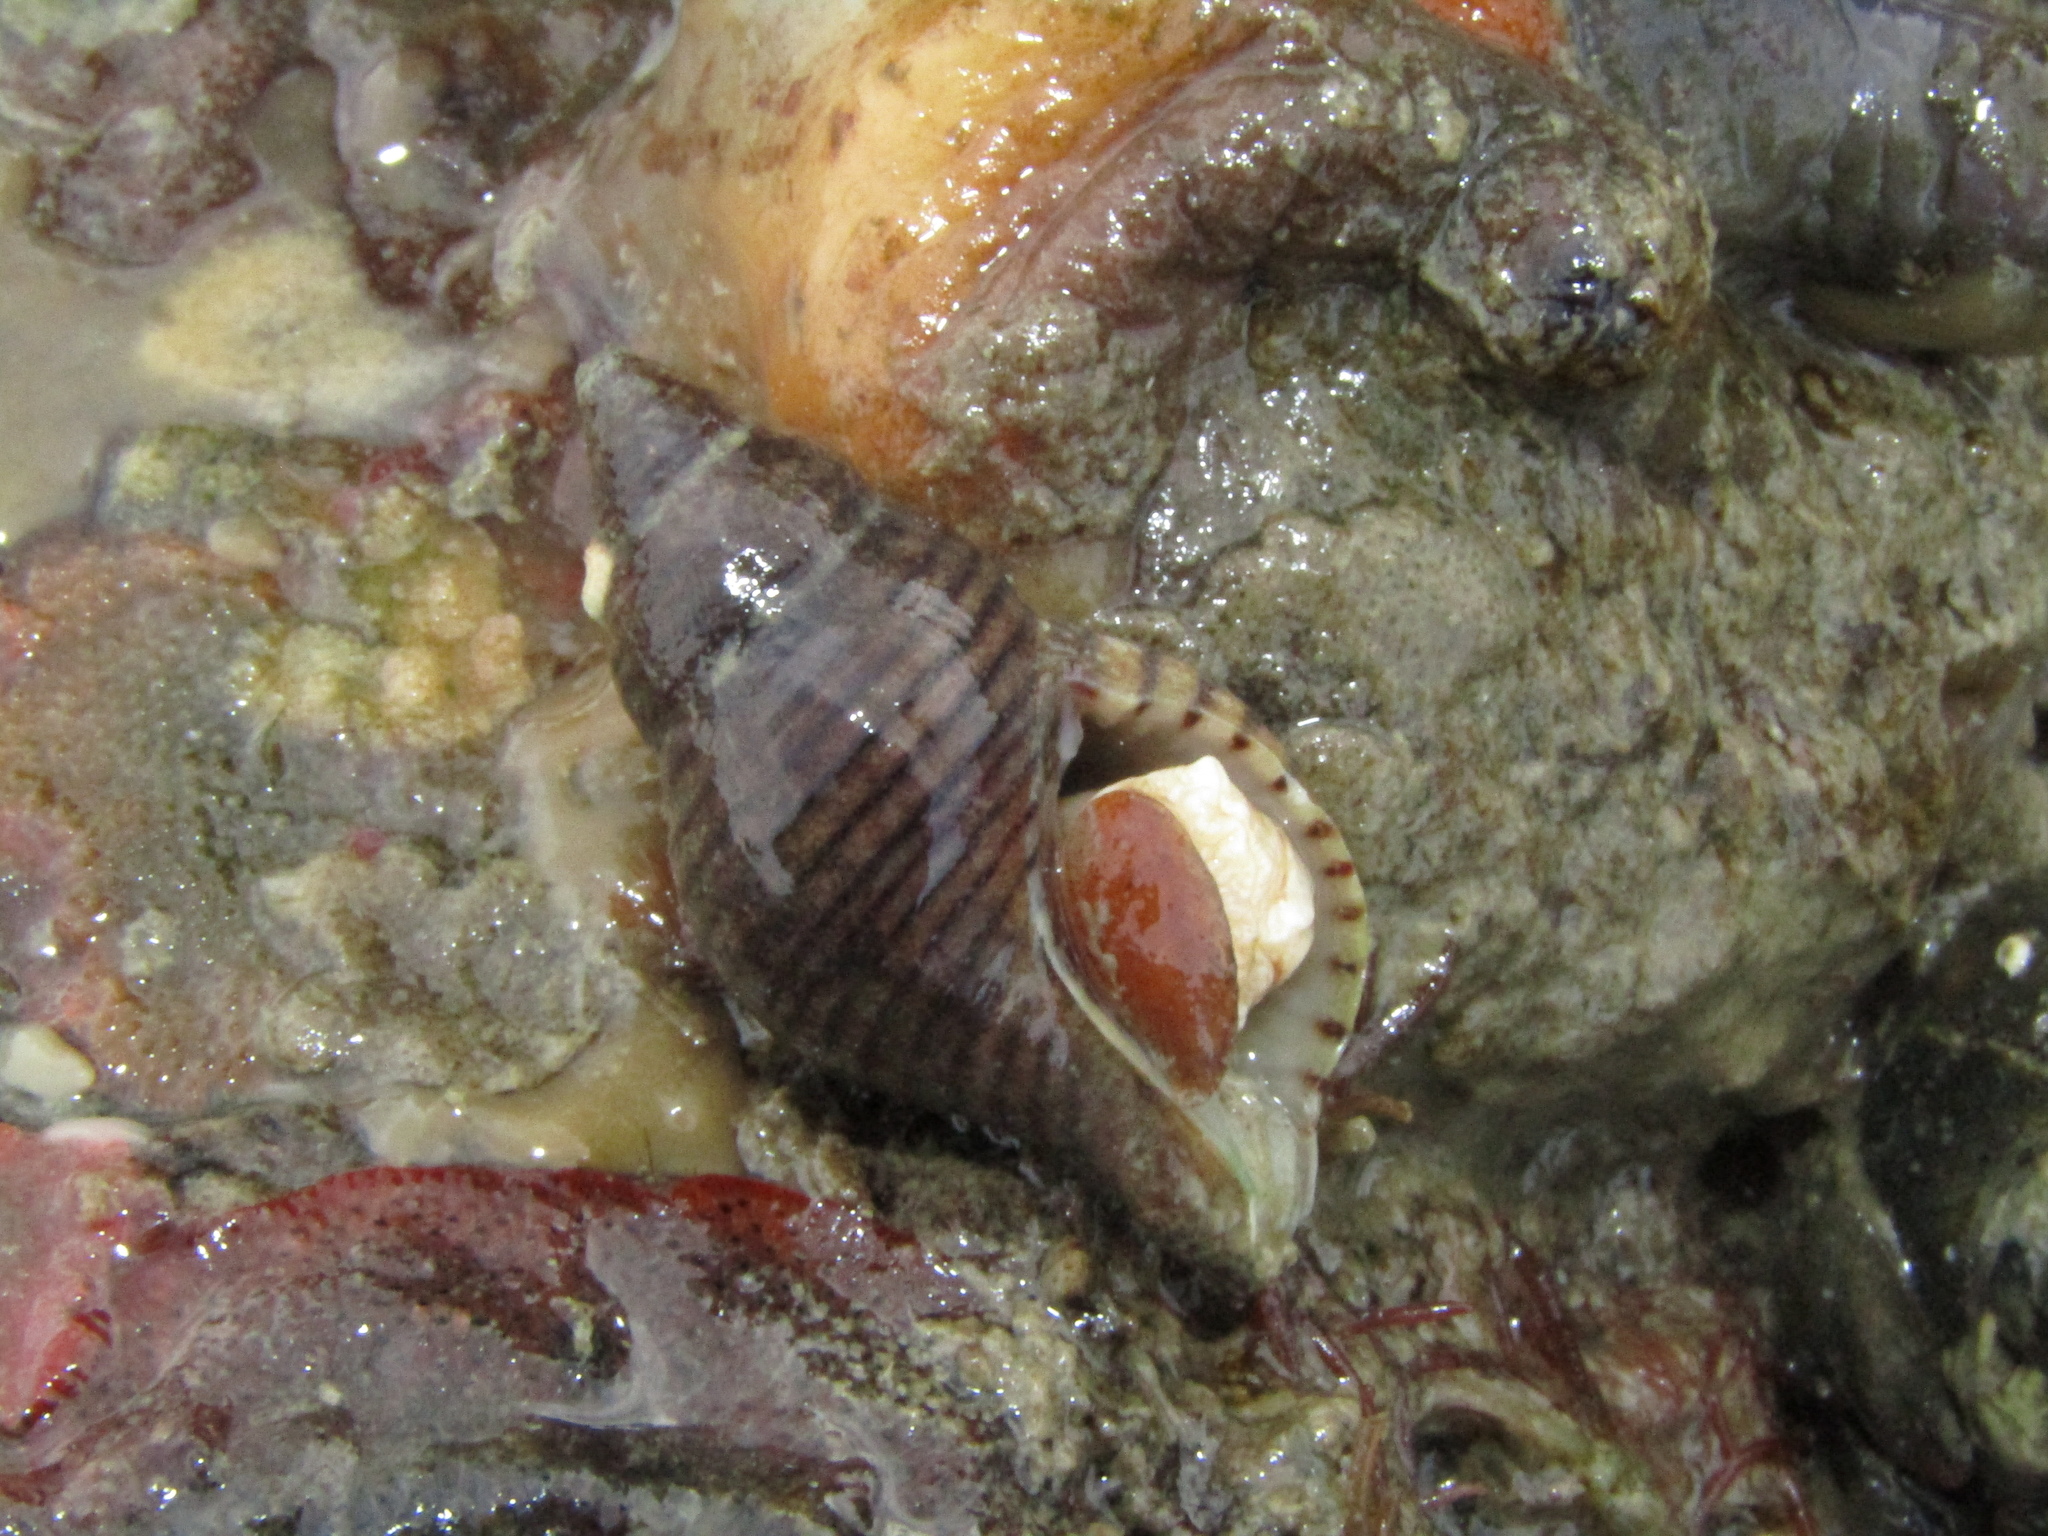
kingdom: Animalia
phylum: Mollusca
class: Gastropoda
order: Neogastropoda
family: Tudiclidae
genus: Buccinulum
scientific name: Buccinulum linea
